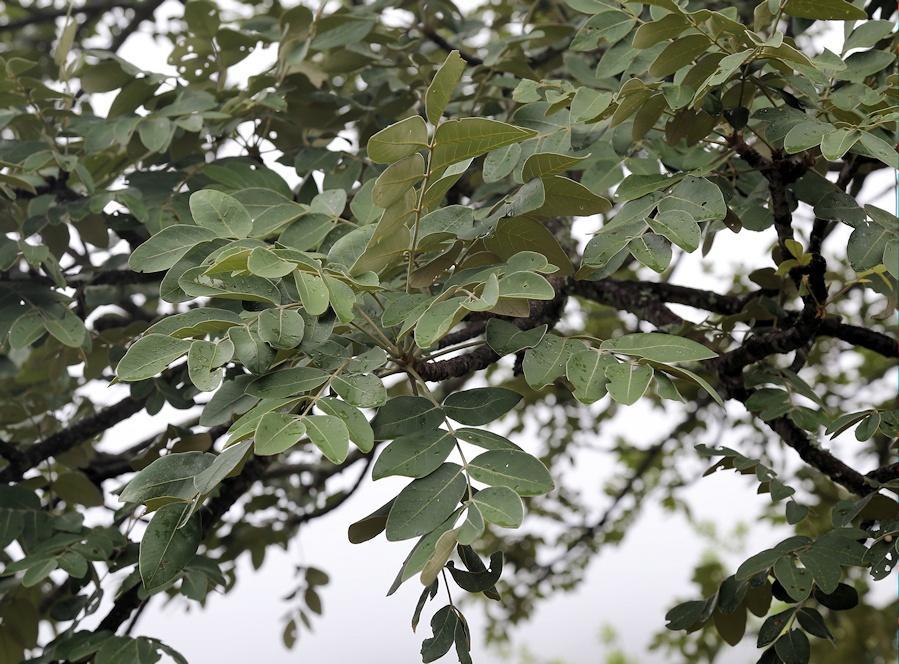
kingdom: Plantae
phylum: Tracheophyta
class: Magnoliopsida
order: Sapindales
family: Anacardiaceae
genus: Lannea
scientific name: Lannea discolor
